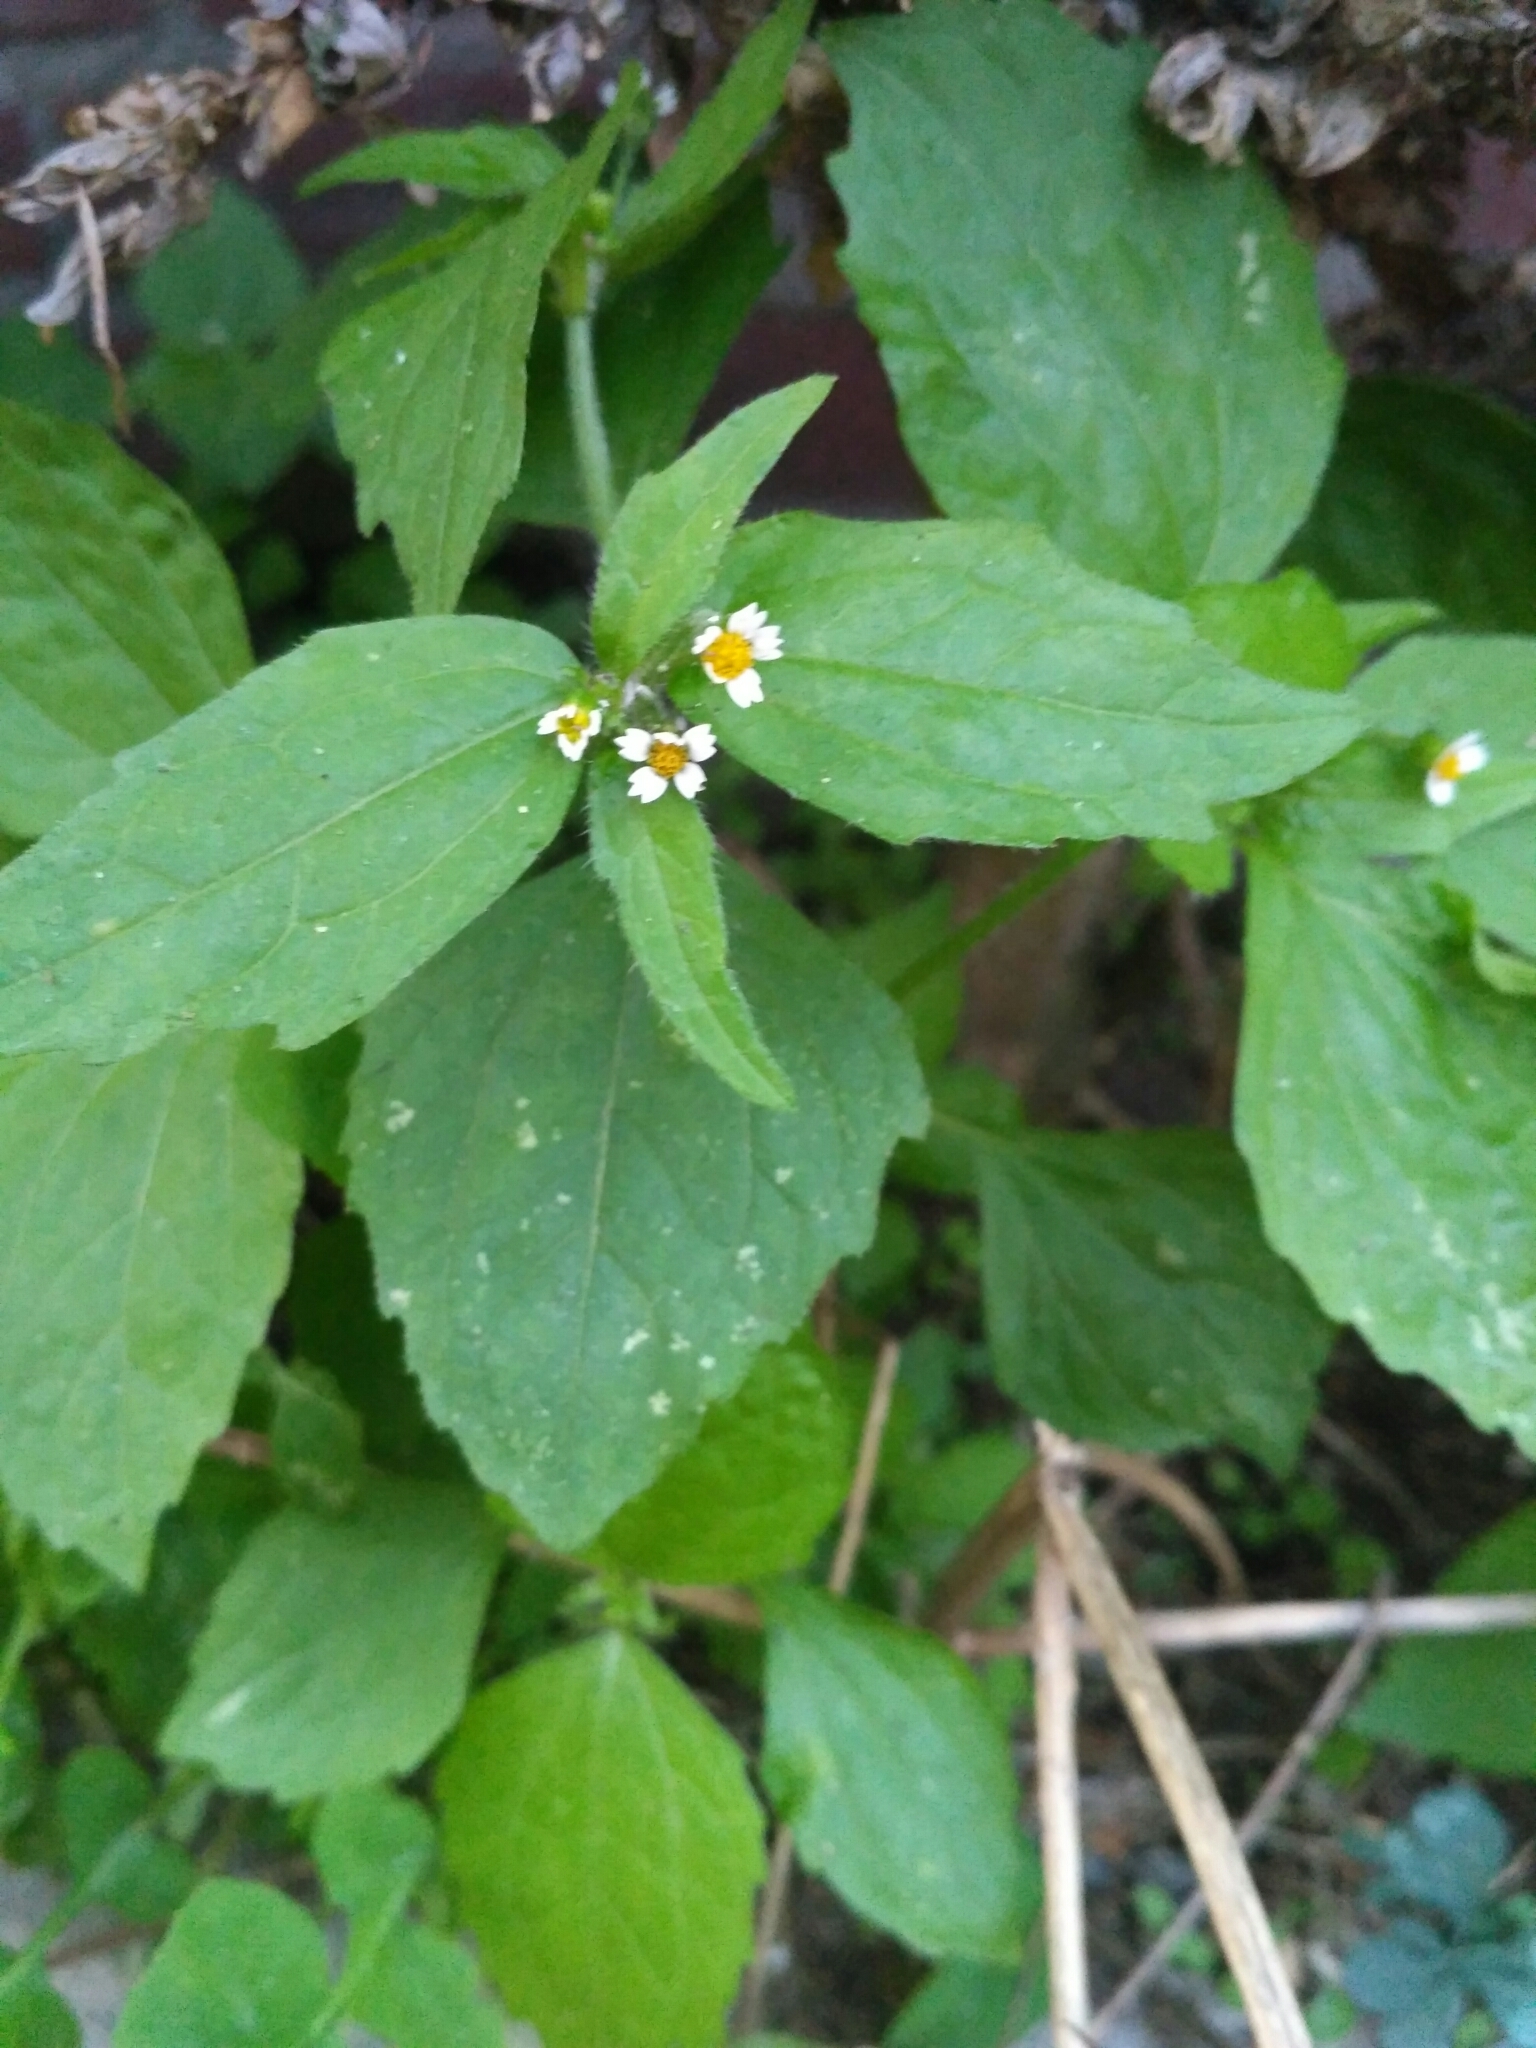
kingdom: Plantae
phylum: Tracheophyta
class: Magnoliopsida
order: Asterales
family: Asteraceae
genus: Galinsoga
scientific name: Galinsoga quadriradiata
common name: Shaggy soldier
